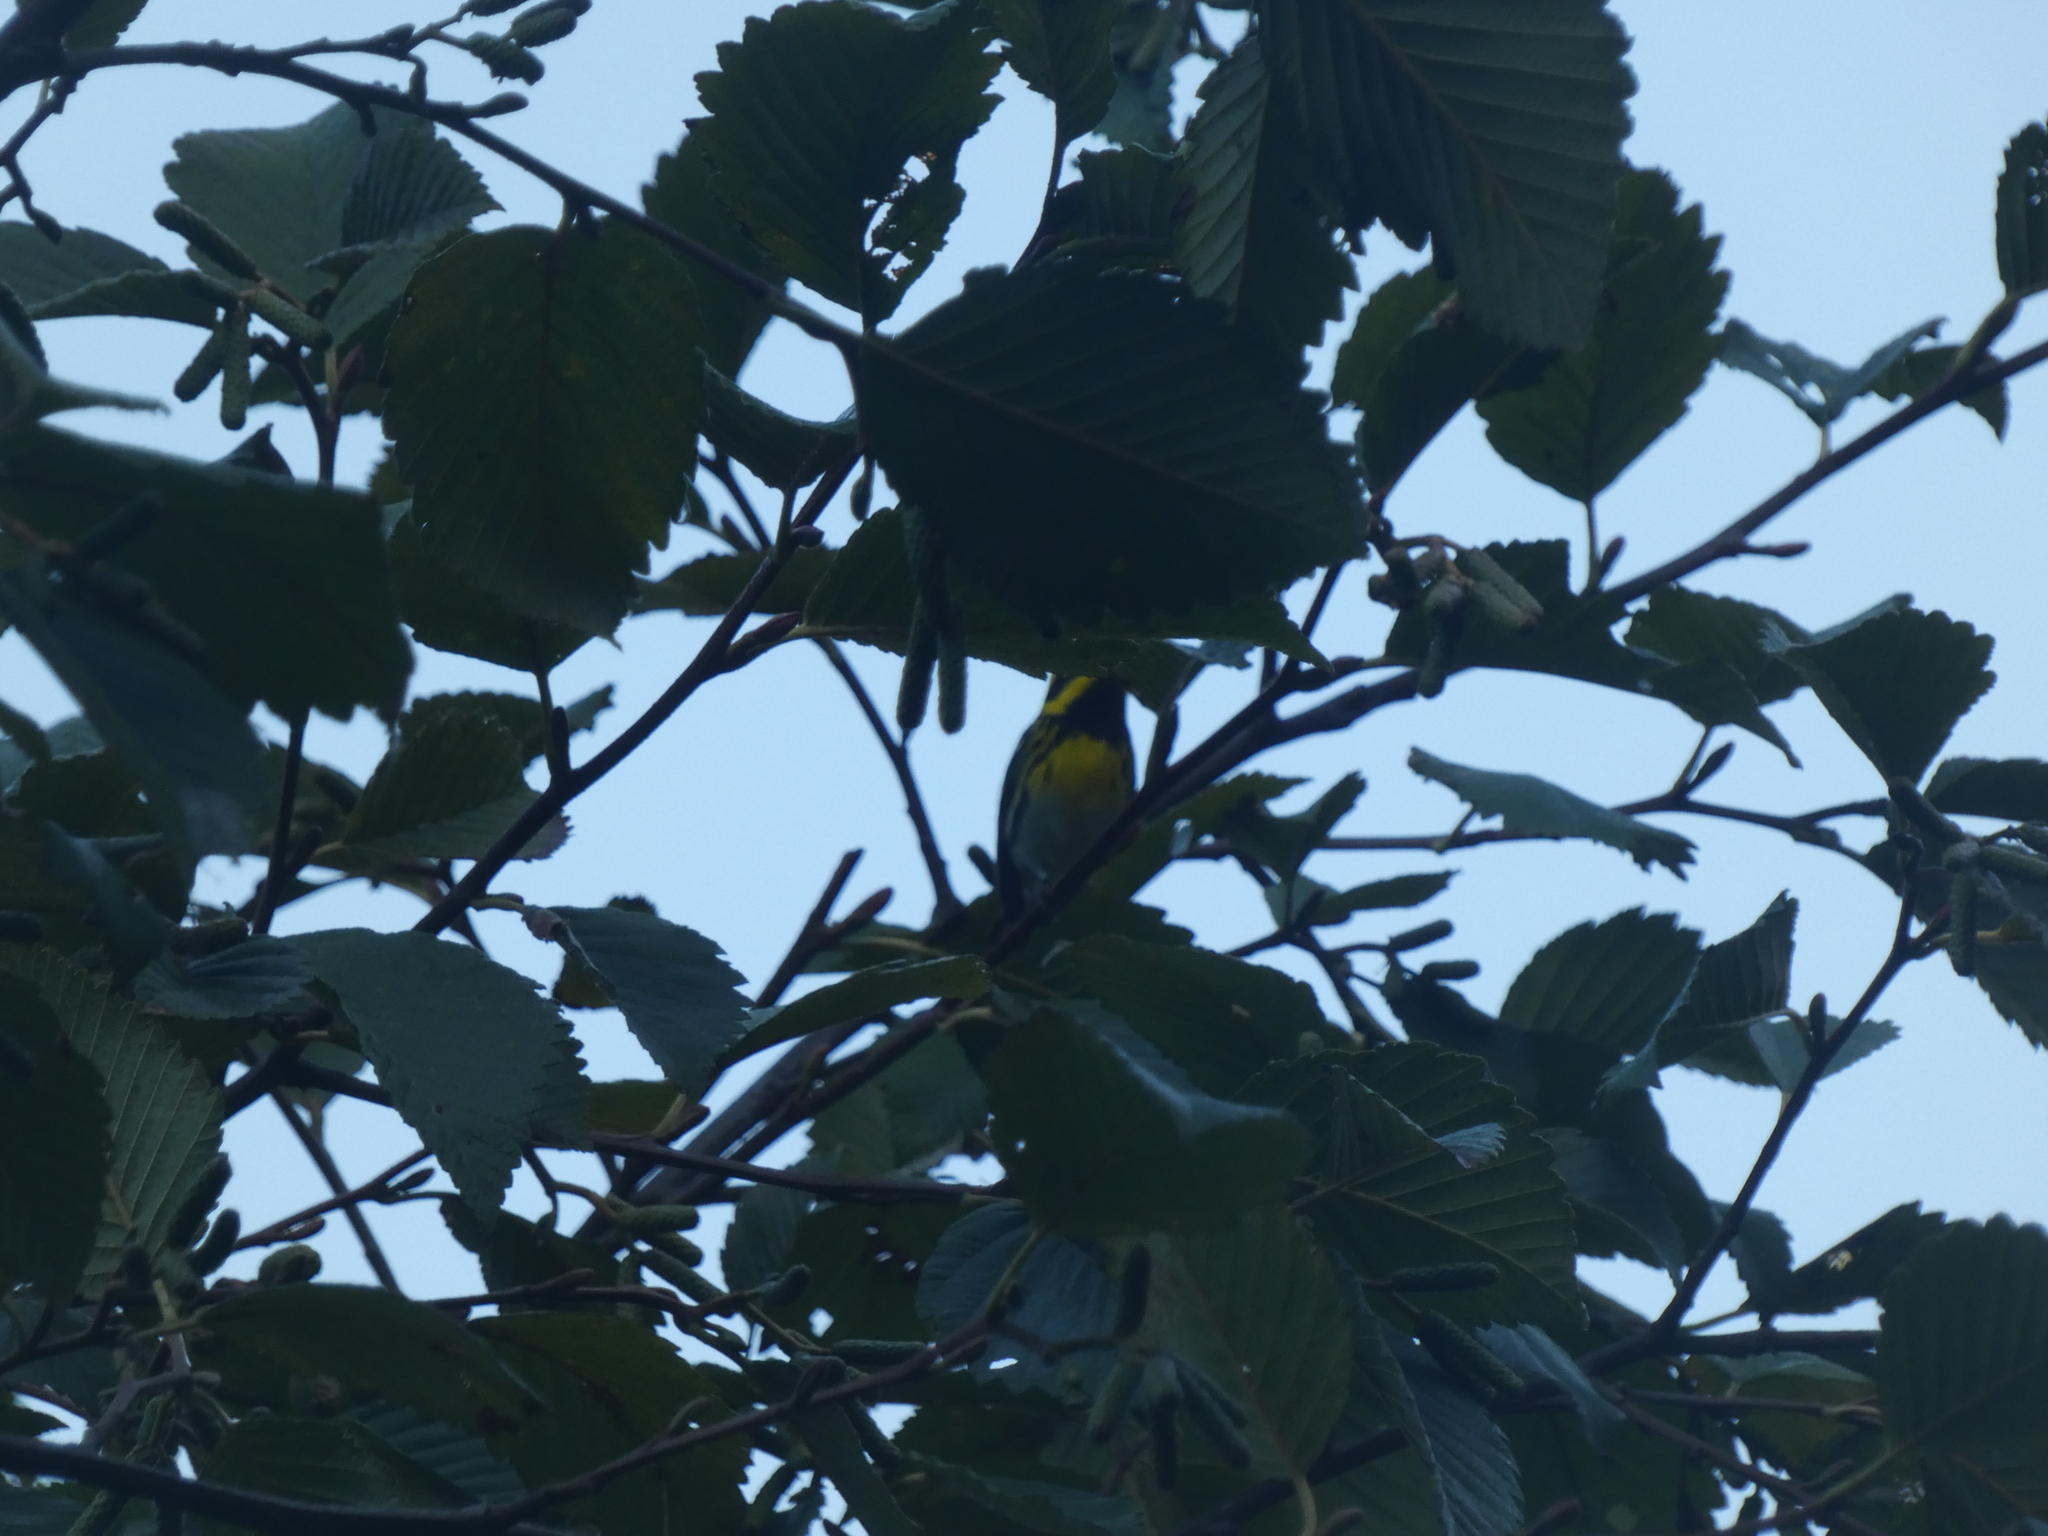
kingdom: Animalia
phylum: Chordata
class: Aves
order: Passeriformes
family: Parulidae
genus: Setophaga
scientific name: Setophaga townsendi
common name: Townsend's warbler
